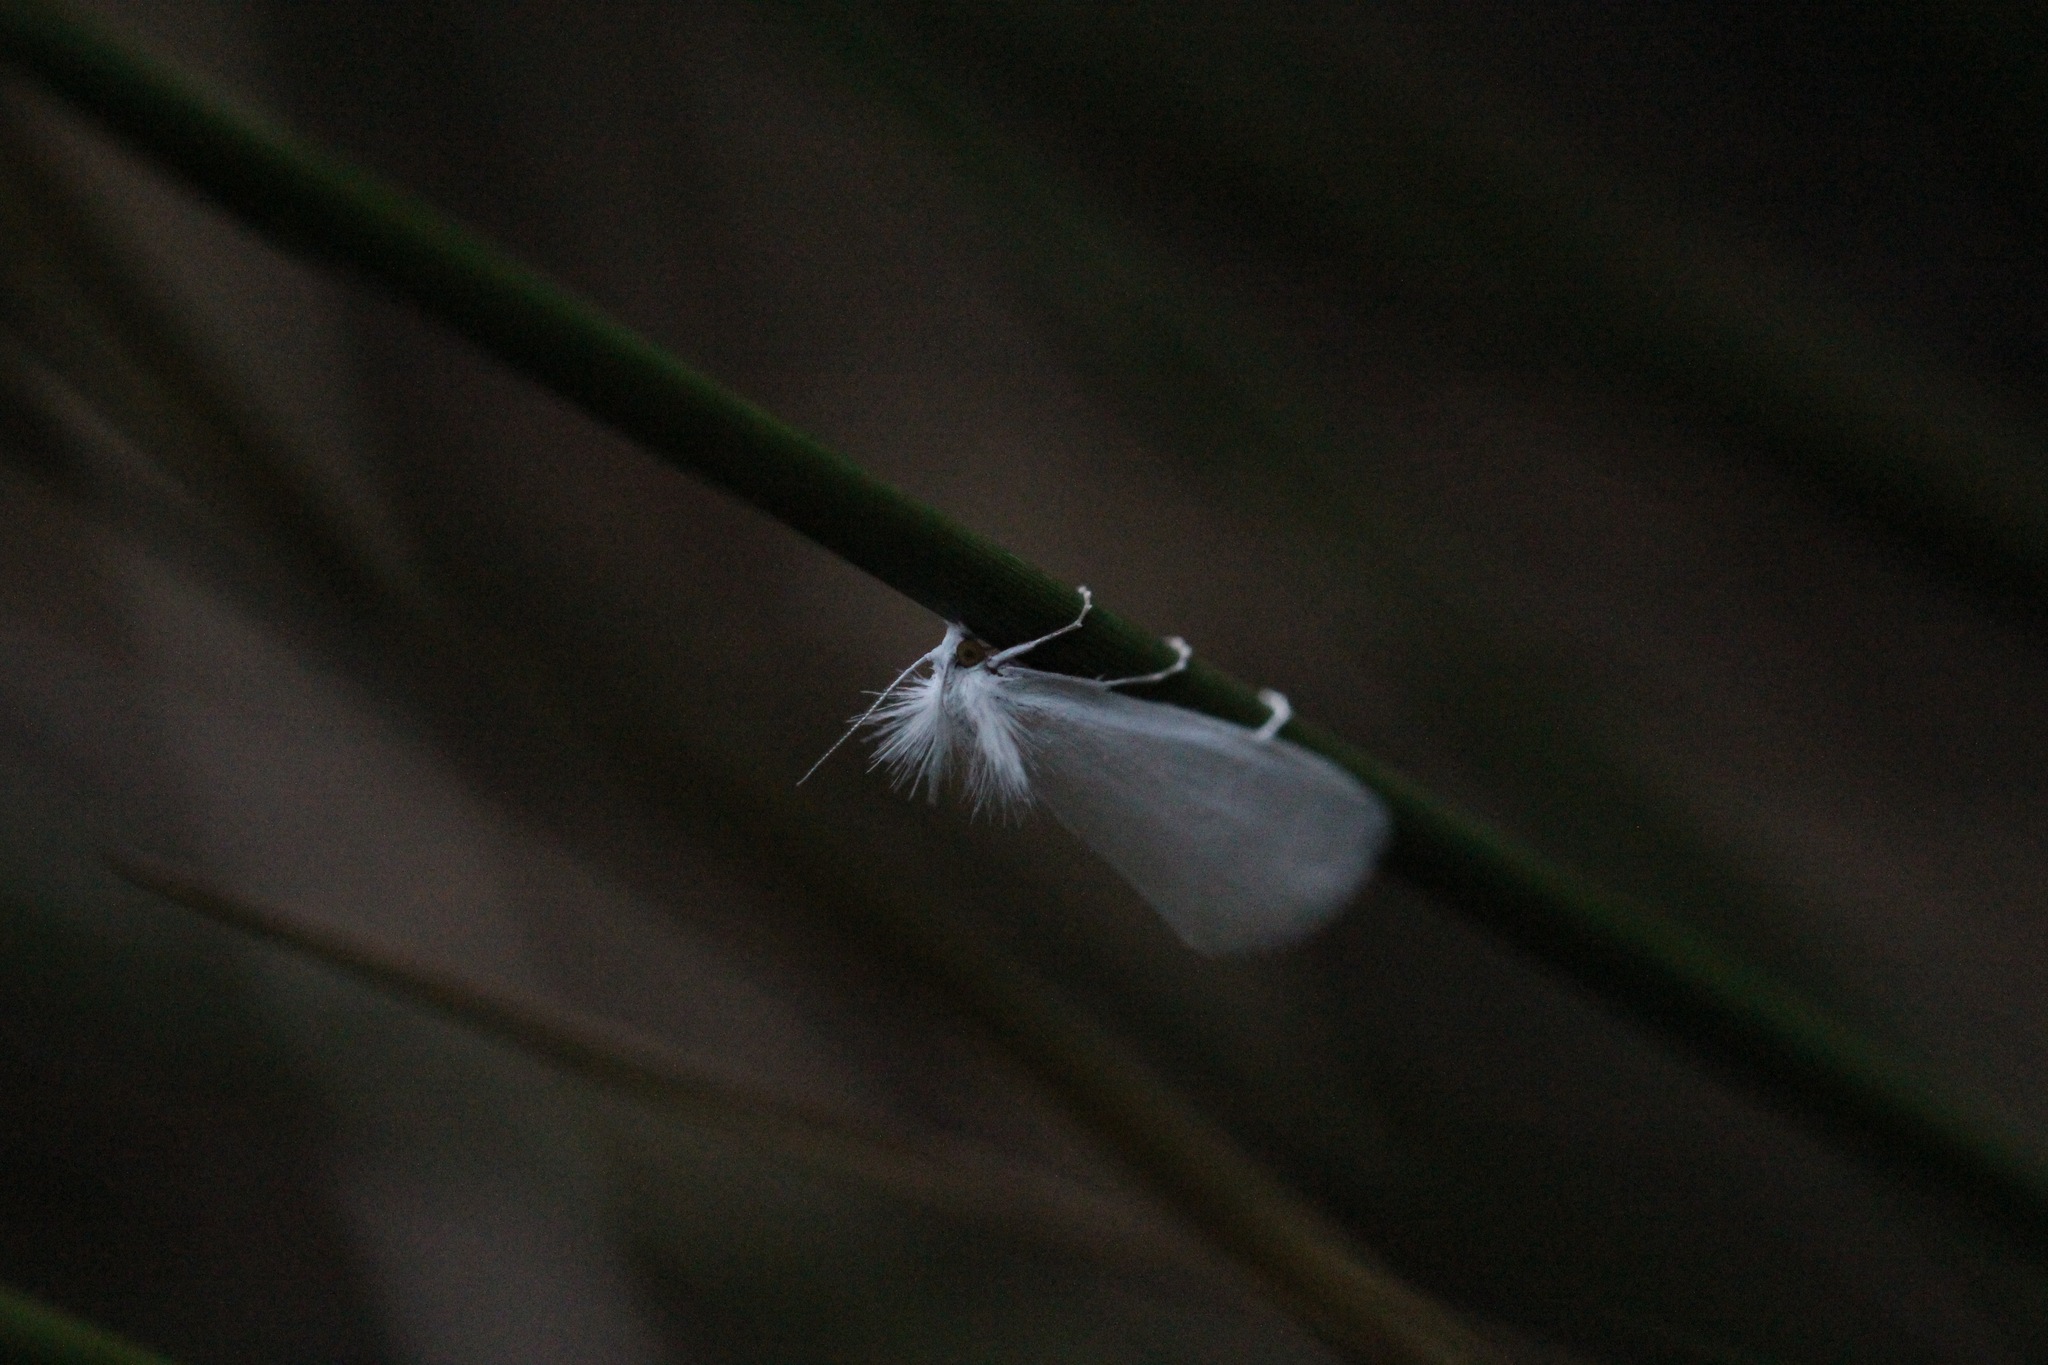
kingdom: Animalia
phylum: Arthropoda
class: Insecta
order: Lepidoptera
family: Crambidae
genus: Tipanaea
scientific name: Tipanaea patulella
